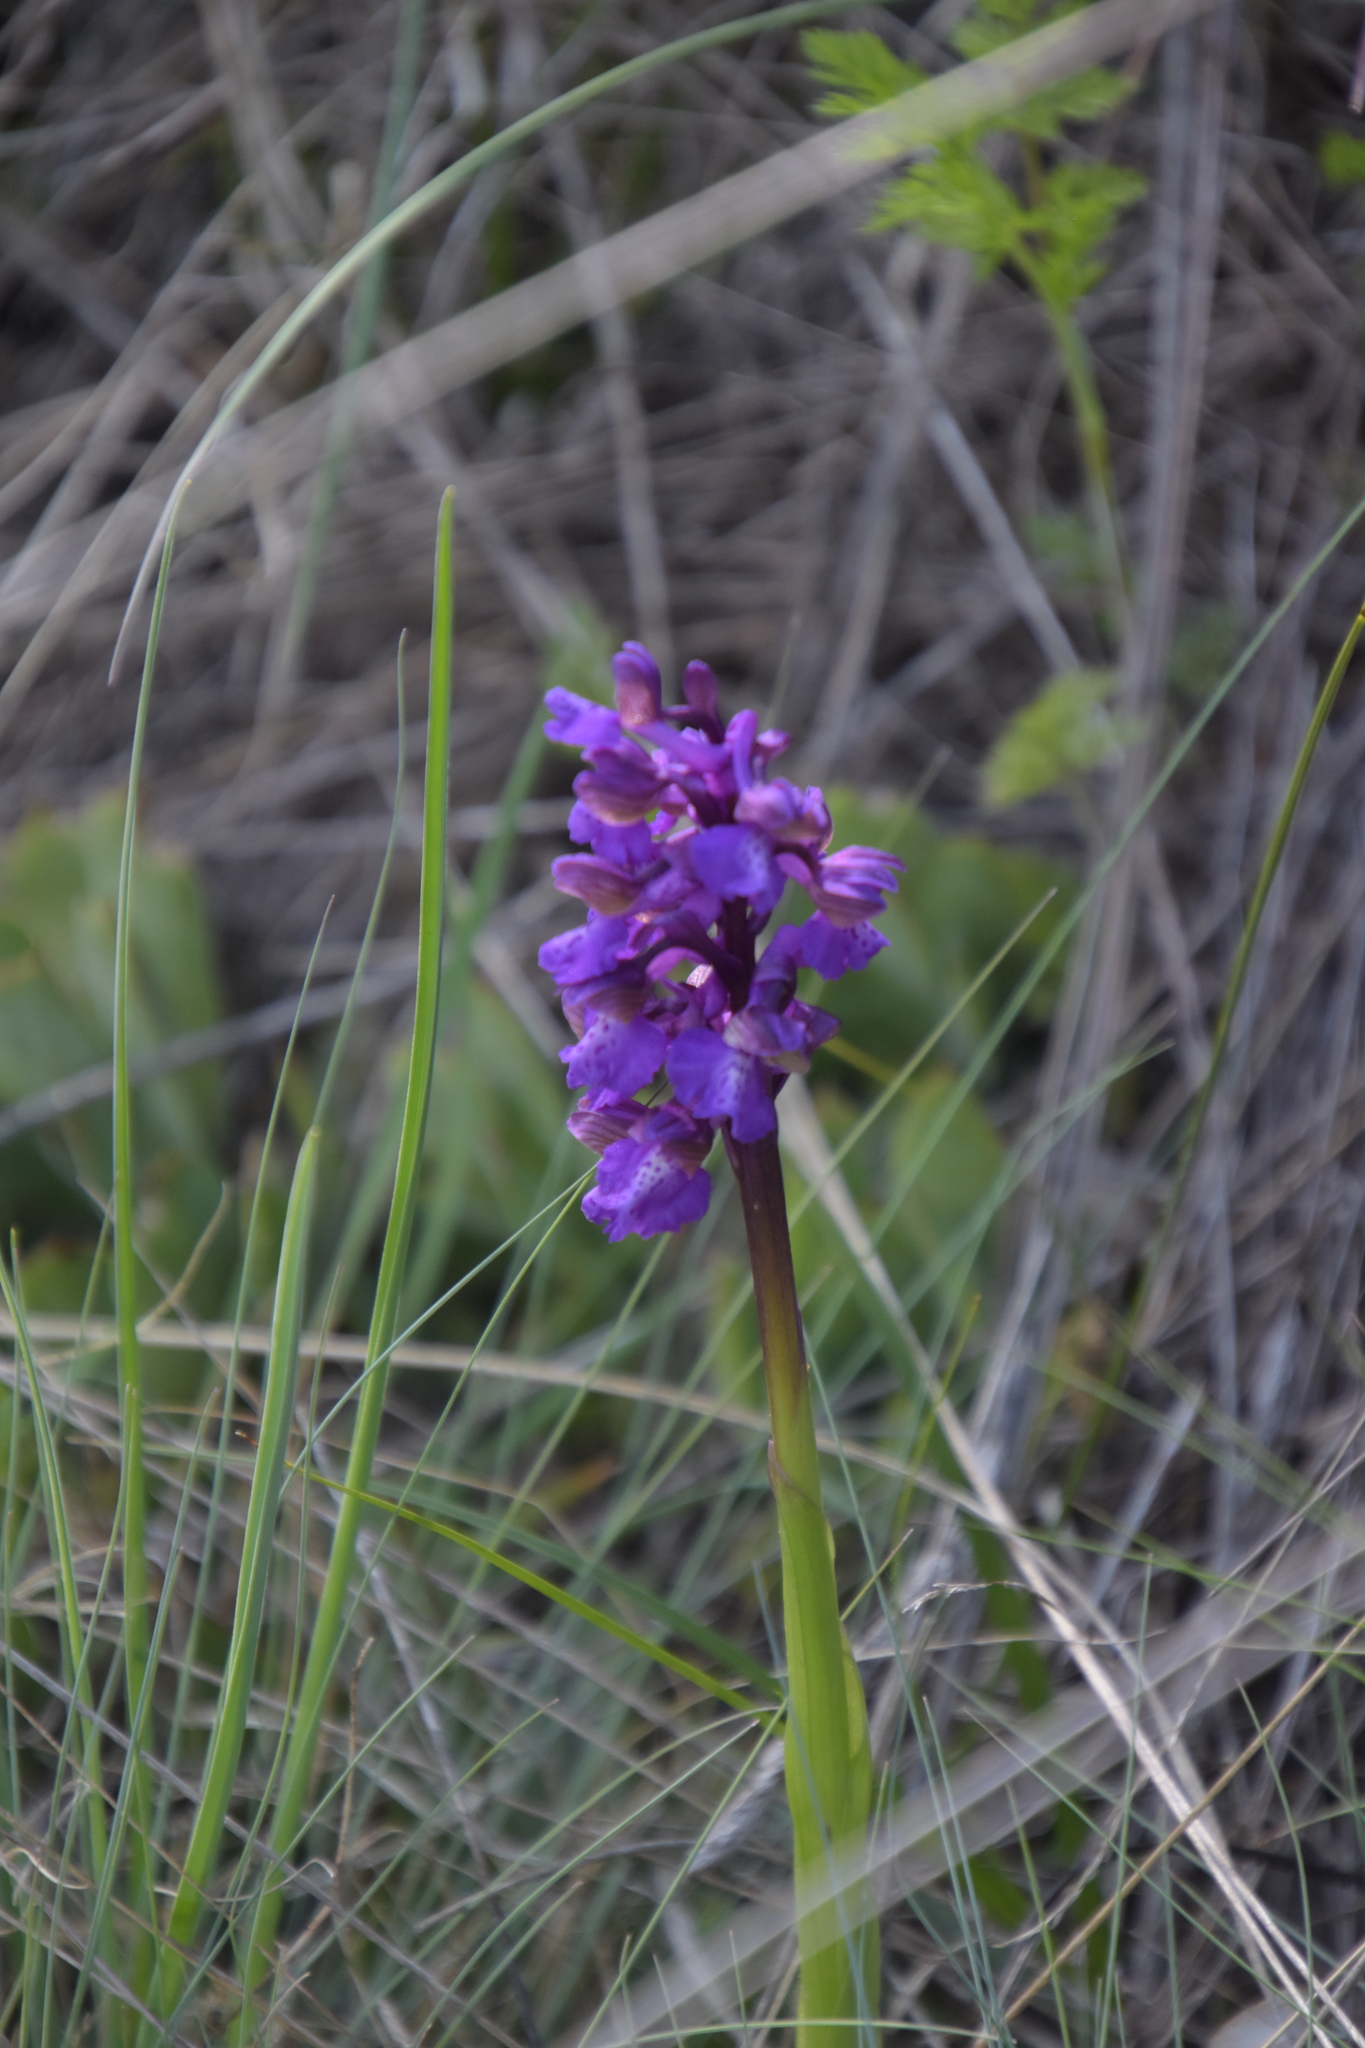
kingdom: Plantae
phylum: Tracheophyta
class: Liliopsida
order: Asparagales
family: Orchidaceae
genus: Anacamptis
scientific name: Anacamptis morio
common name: Green-winged orchid
